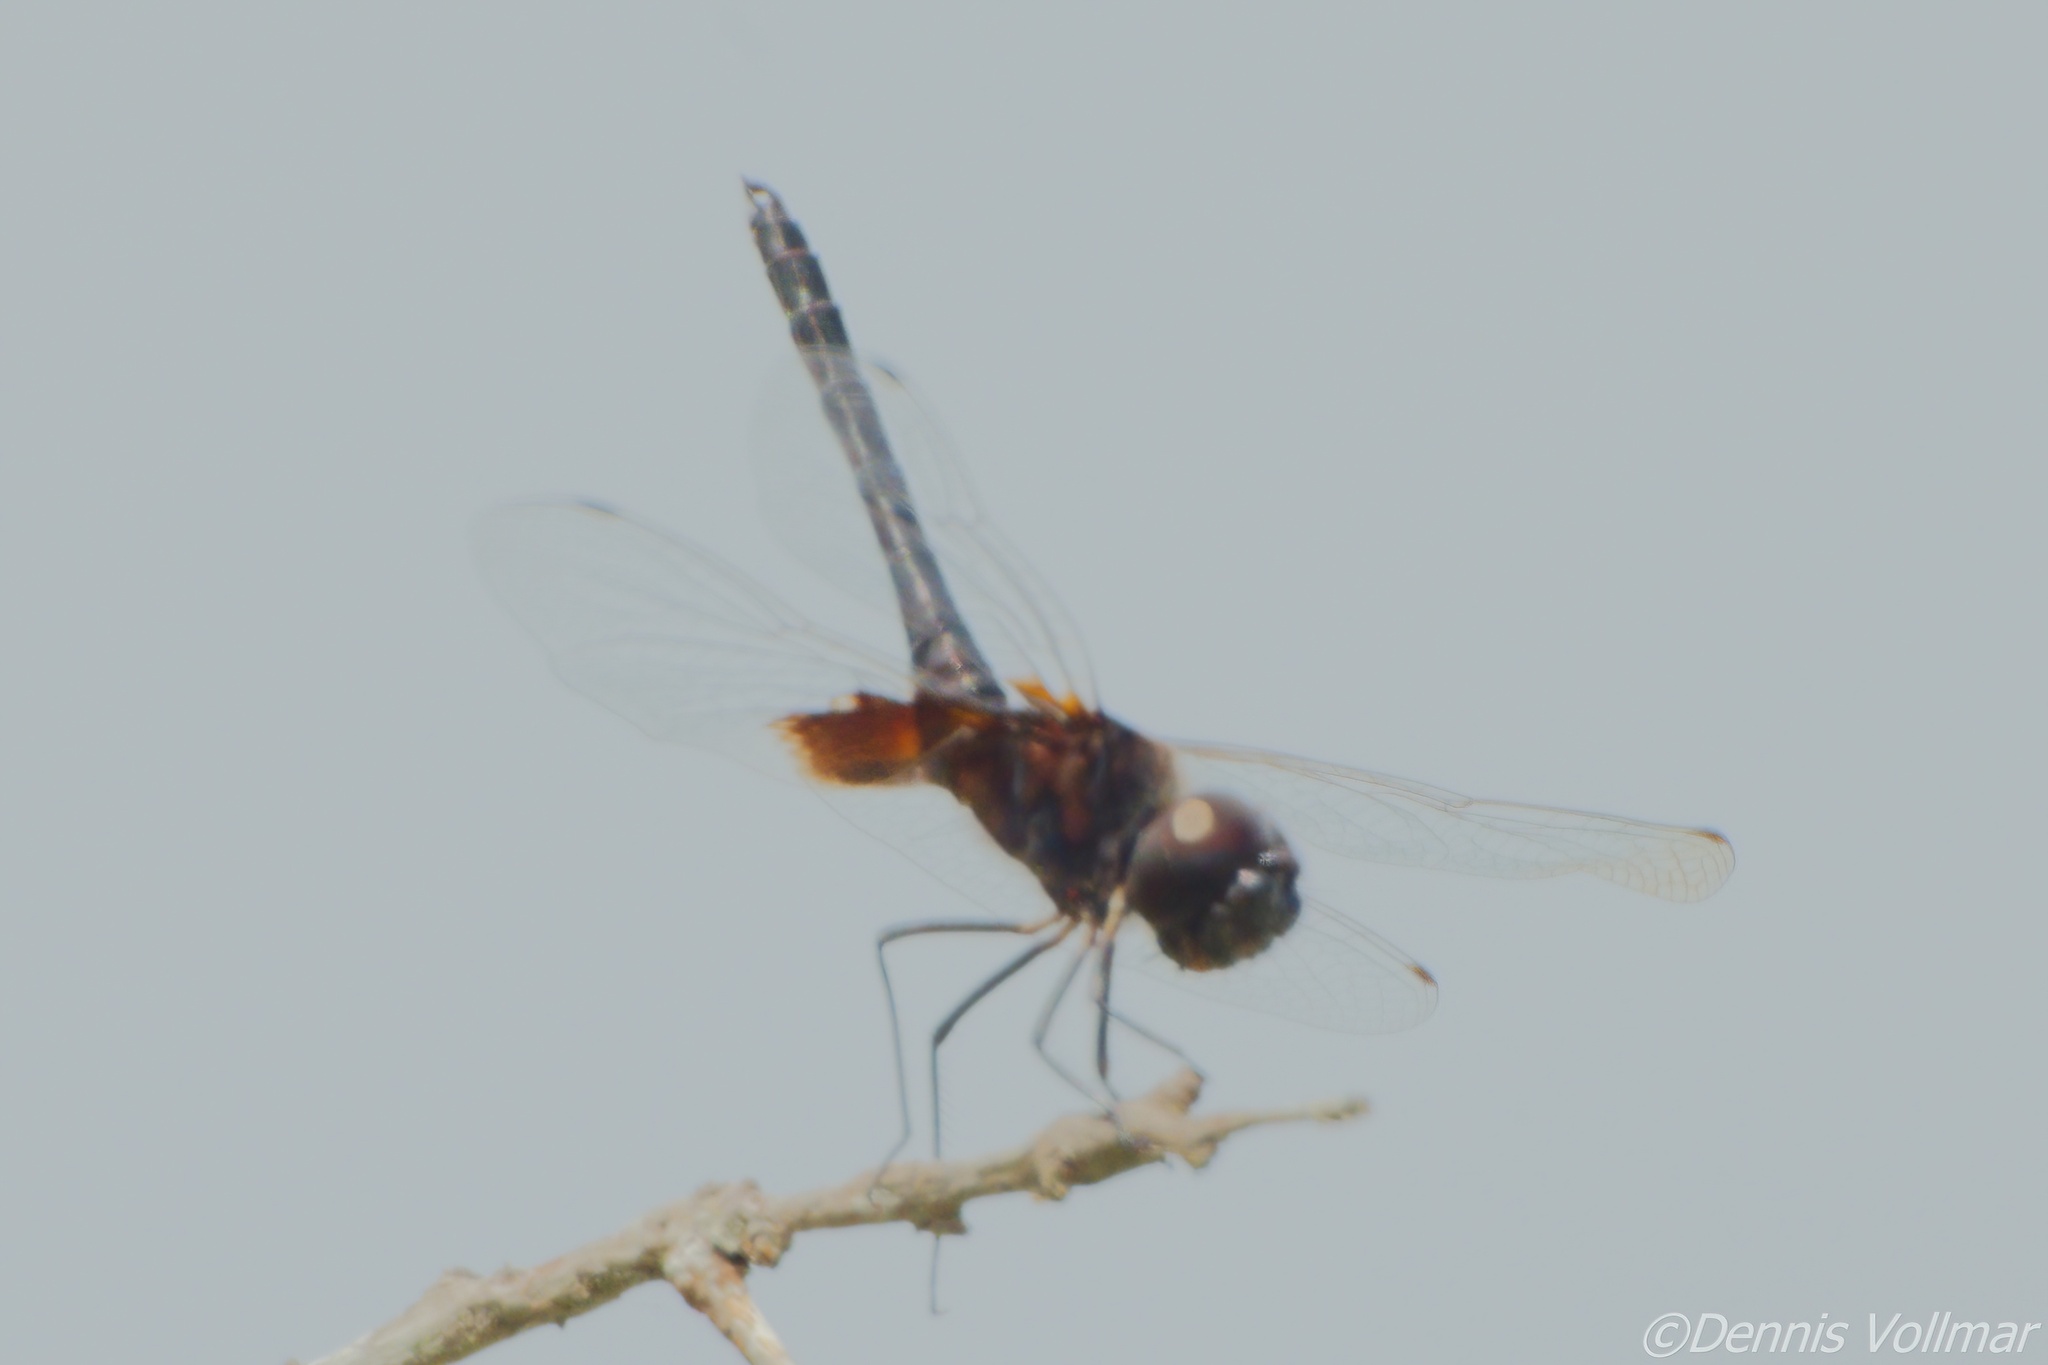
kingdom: Animalia
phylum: Arthropoda
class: Insecta
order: Odonata
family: Libellulidae
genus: Macrodiplax
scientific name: Macrodiplax balteata
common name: Marl pennant
